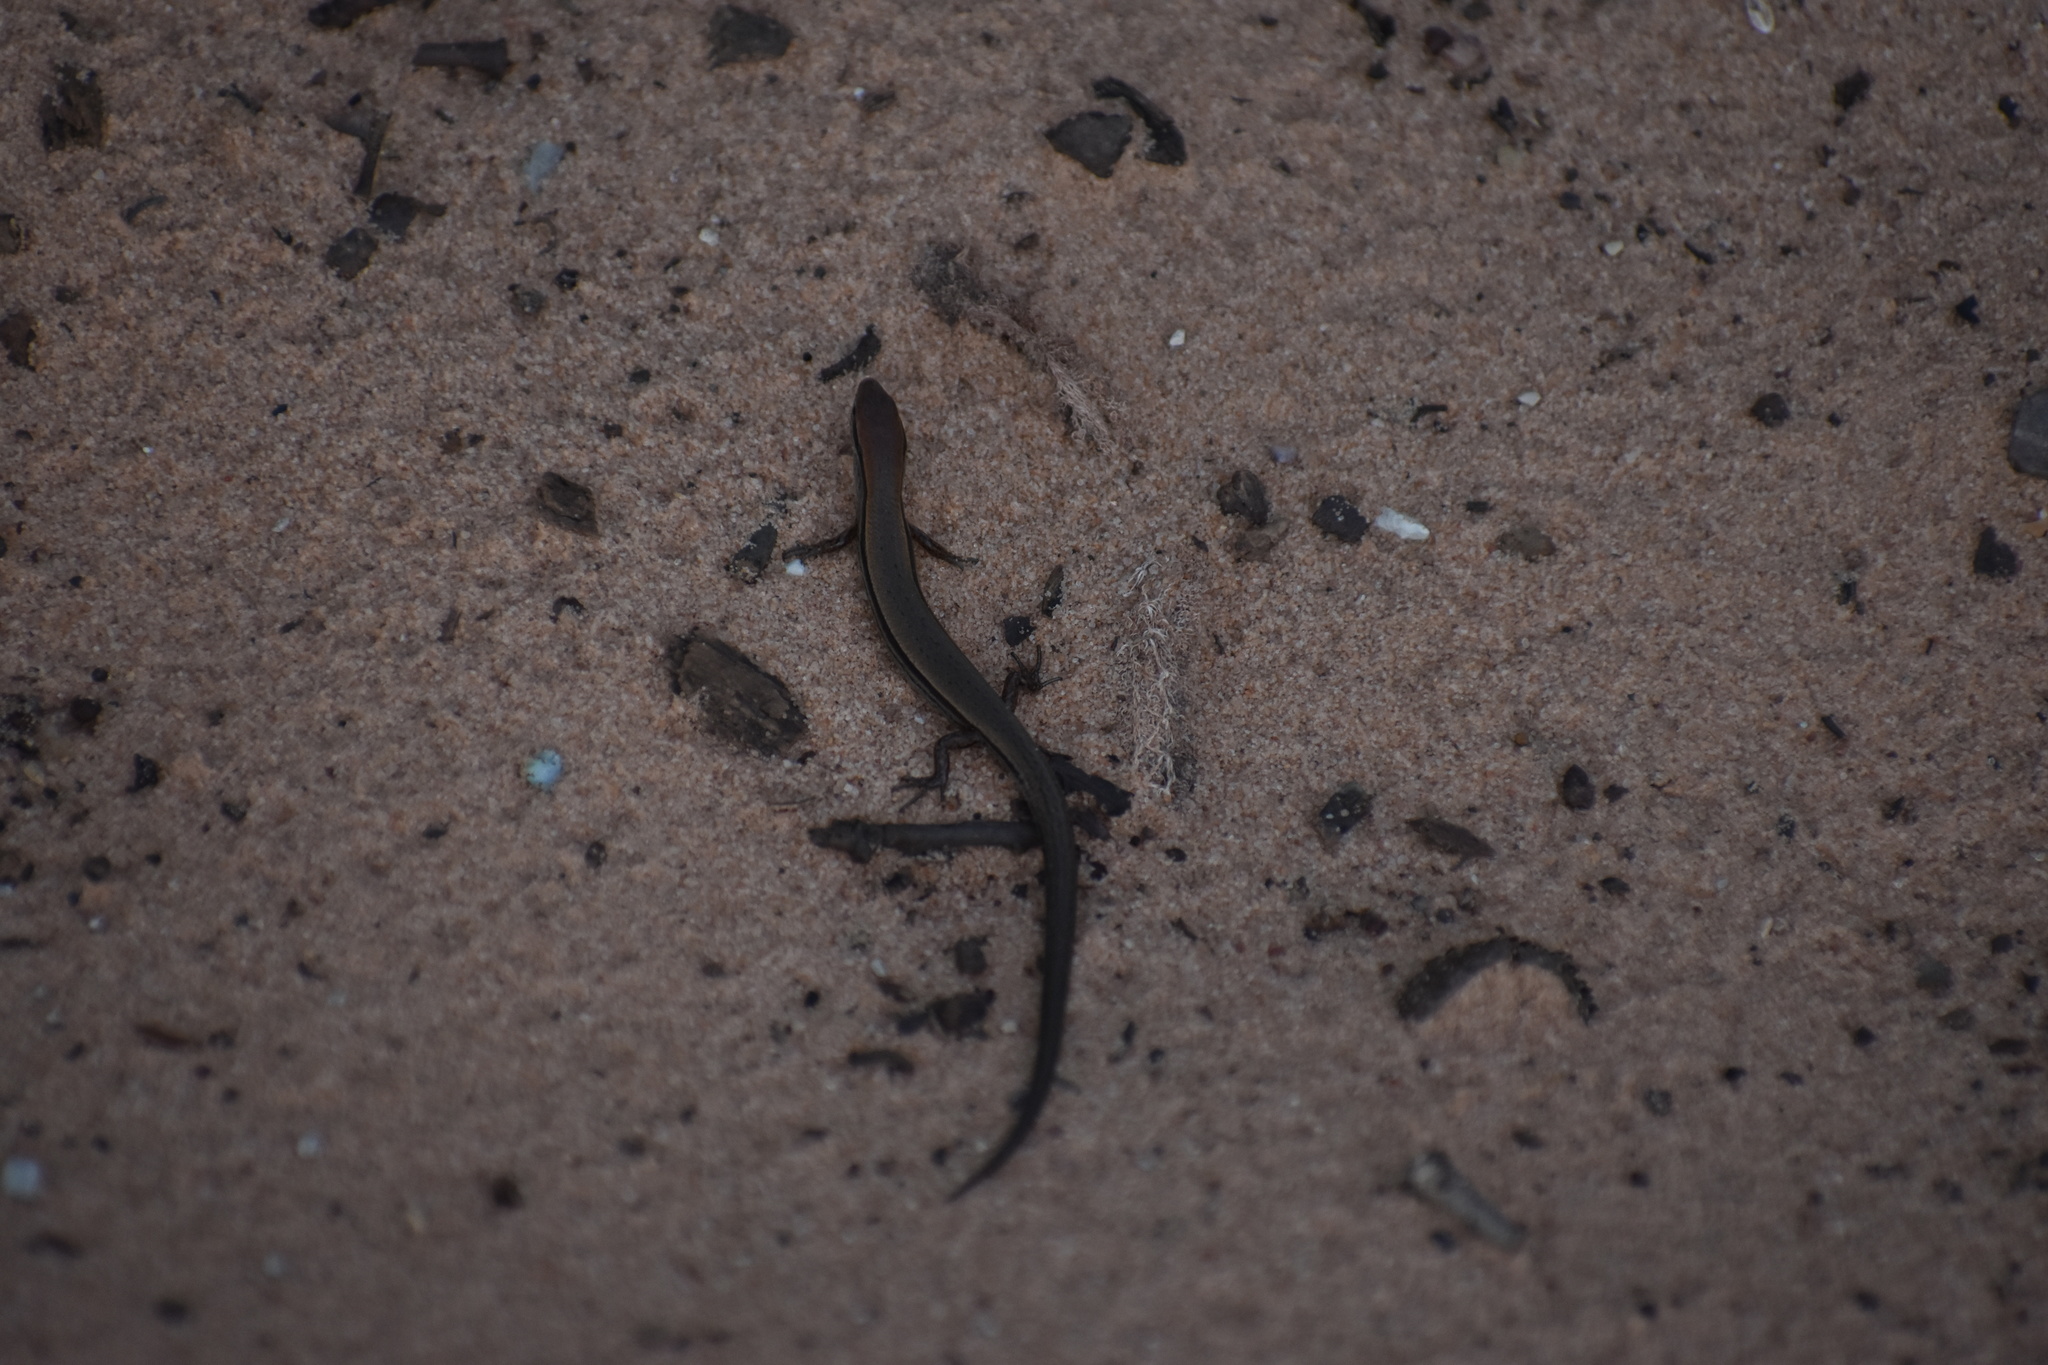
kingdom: Animalia
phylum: Chordata
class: Squamata
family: Scincidae
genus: Scincella
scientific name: Scincella lateralis
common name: Ground skink
